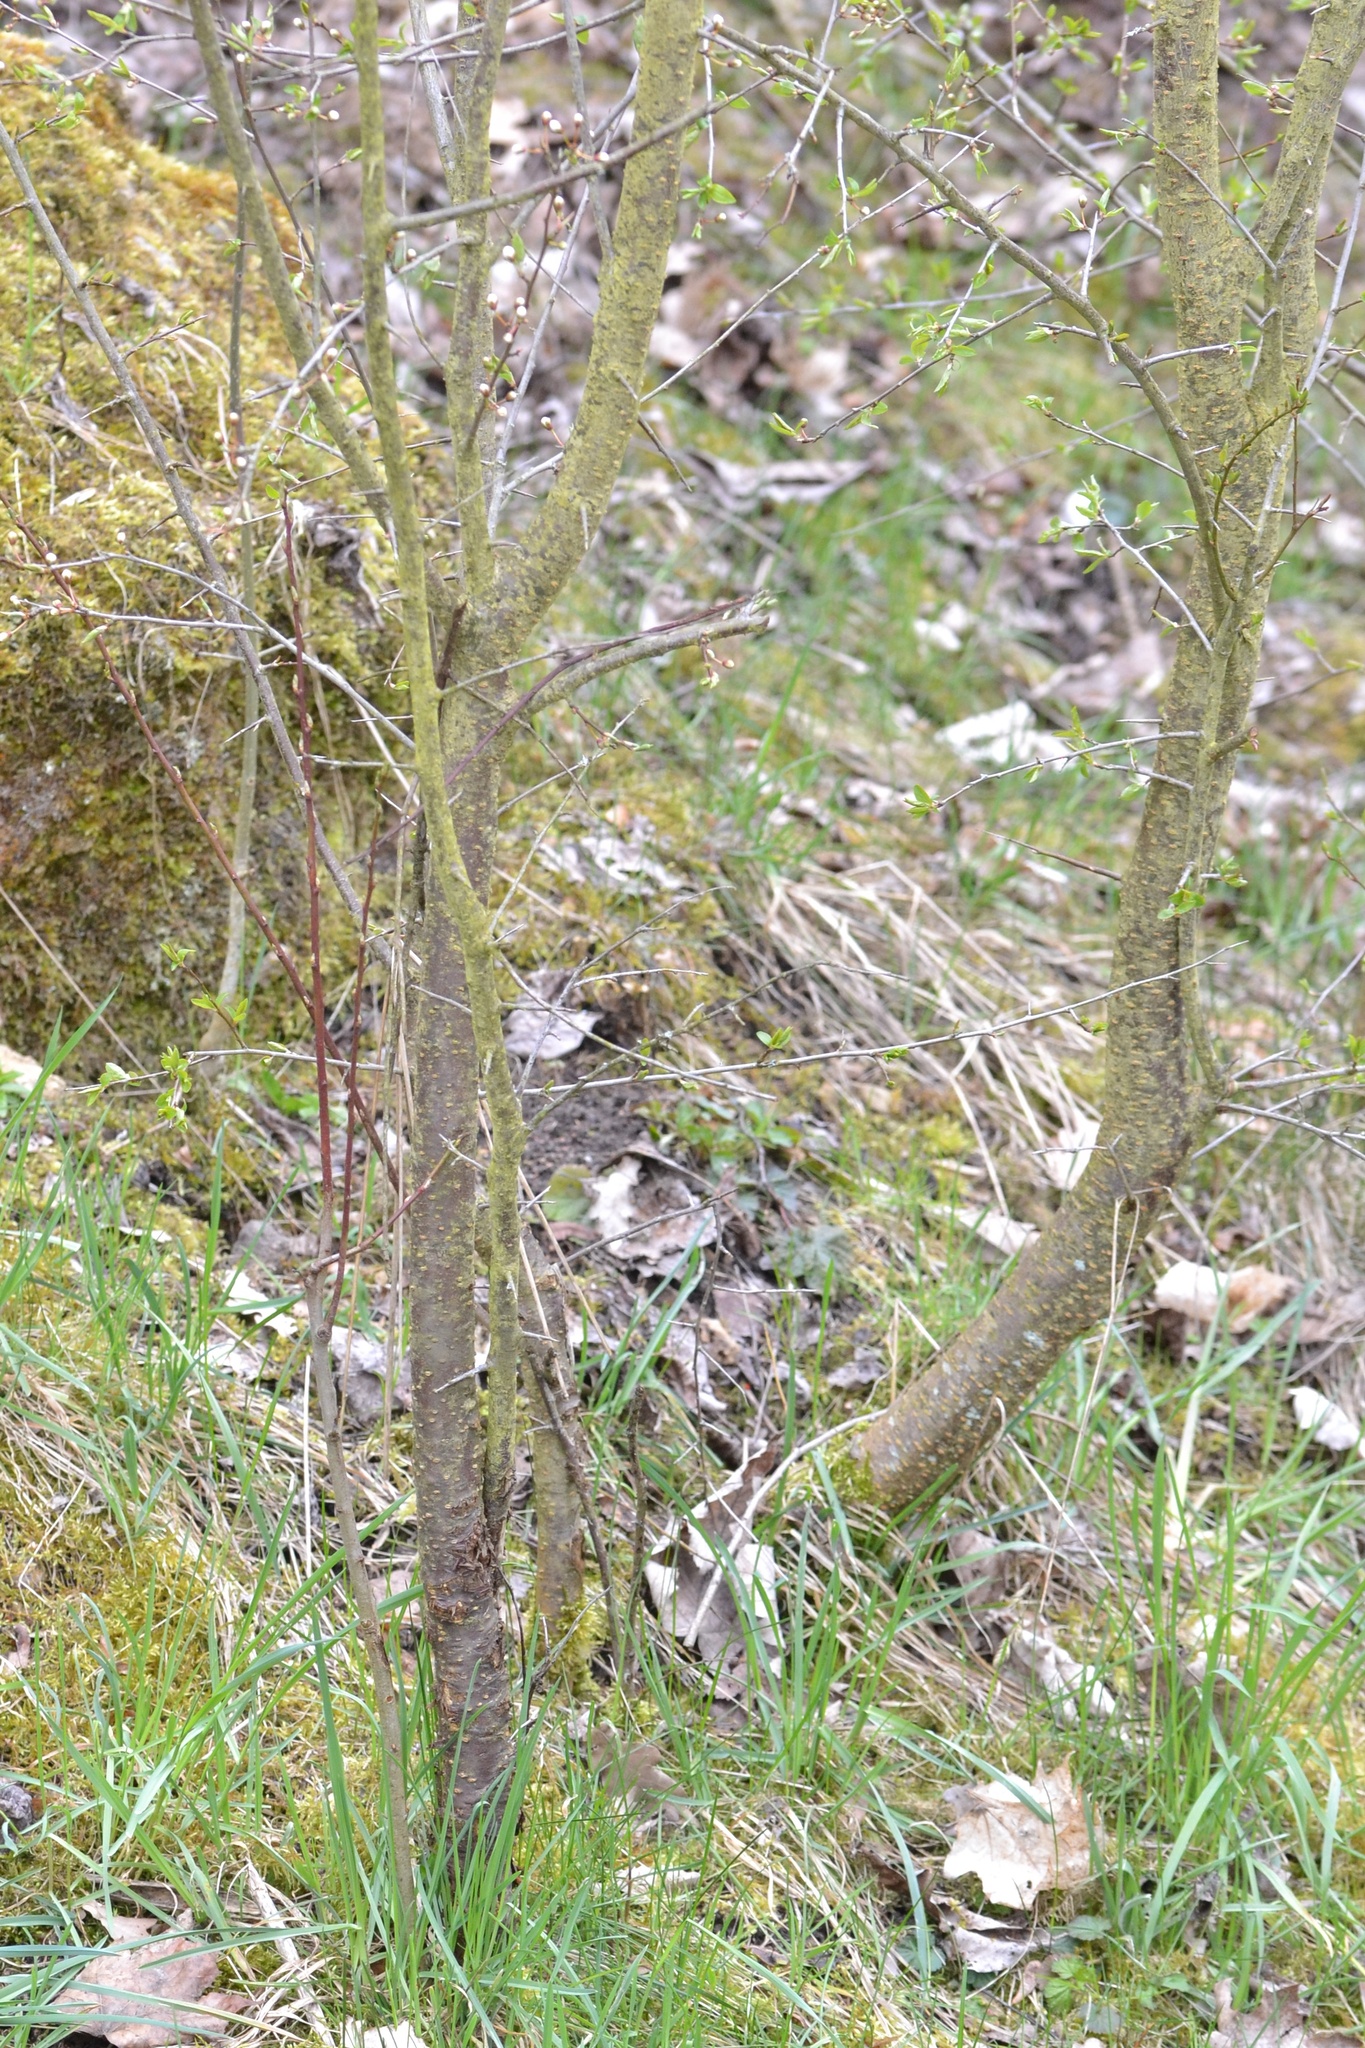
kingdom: Plantae
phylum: Tracheophyta
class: Magnoliopsida
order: Rosales
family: Rosaceae
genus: Prunus
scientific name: Prunus cerasifera
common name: Cherry plum
